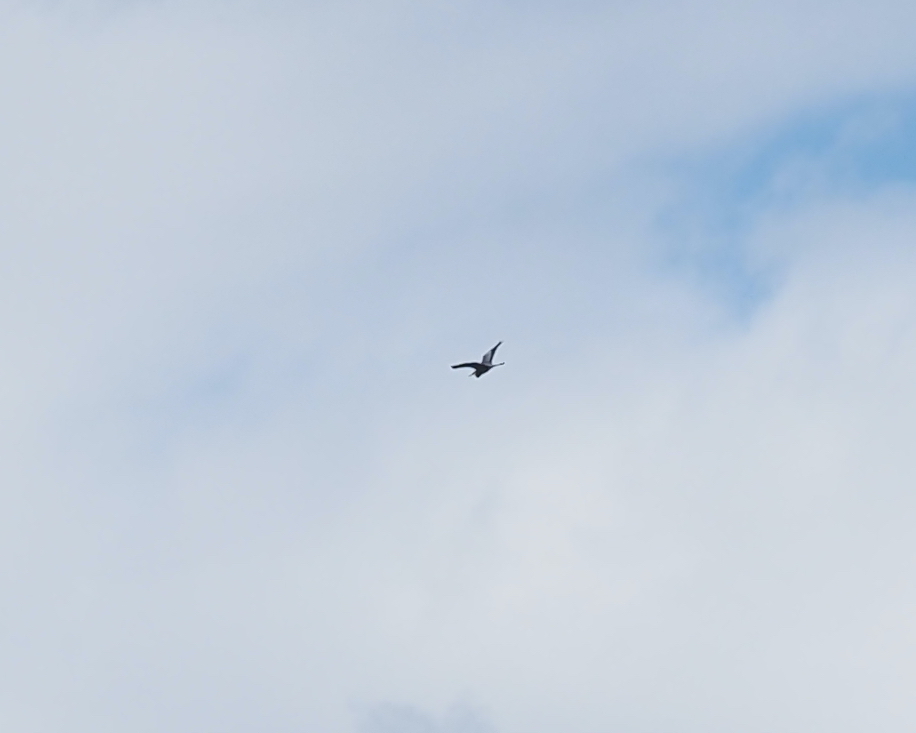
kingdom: Animalia
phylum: Chordata
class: Aves
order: Pelecaniformes
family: Ardeidae
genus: Ardea
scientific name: Ardea herodias
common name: Great blue heron
